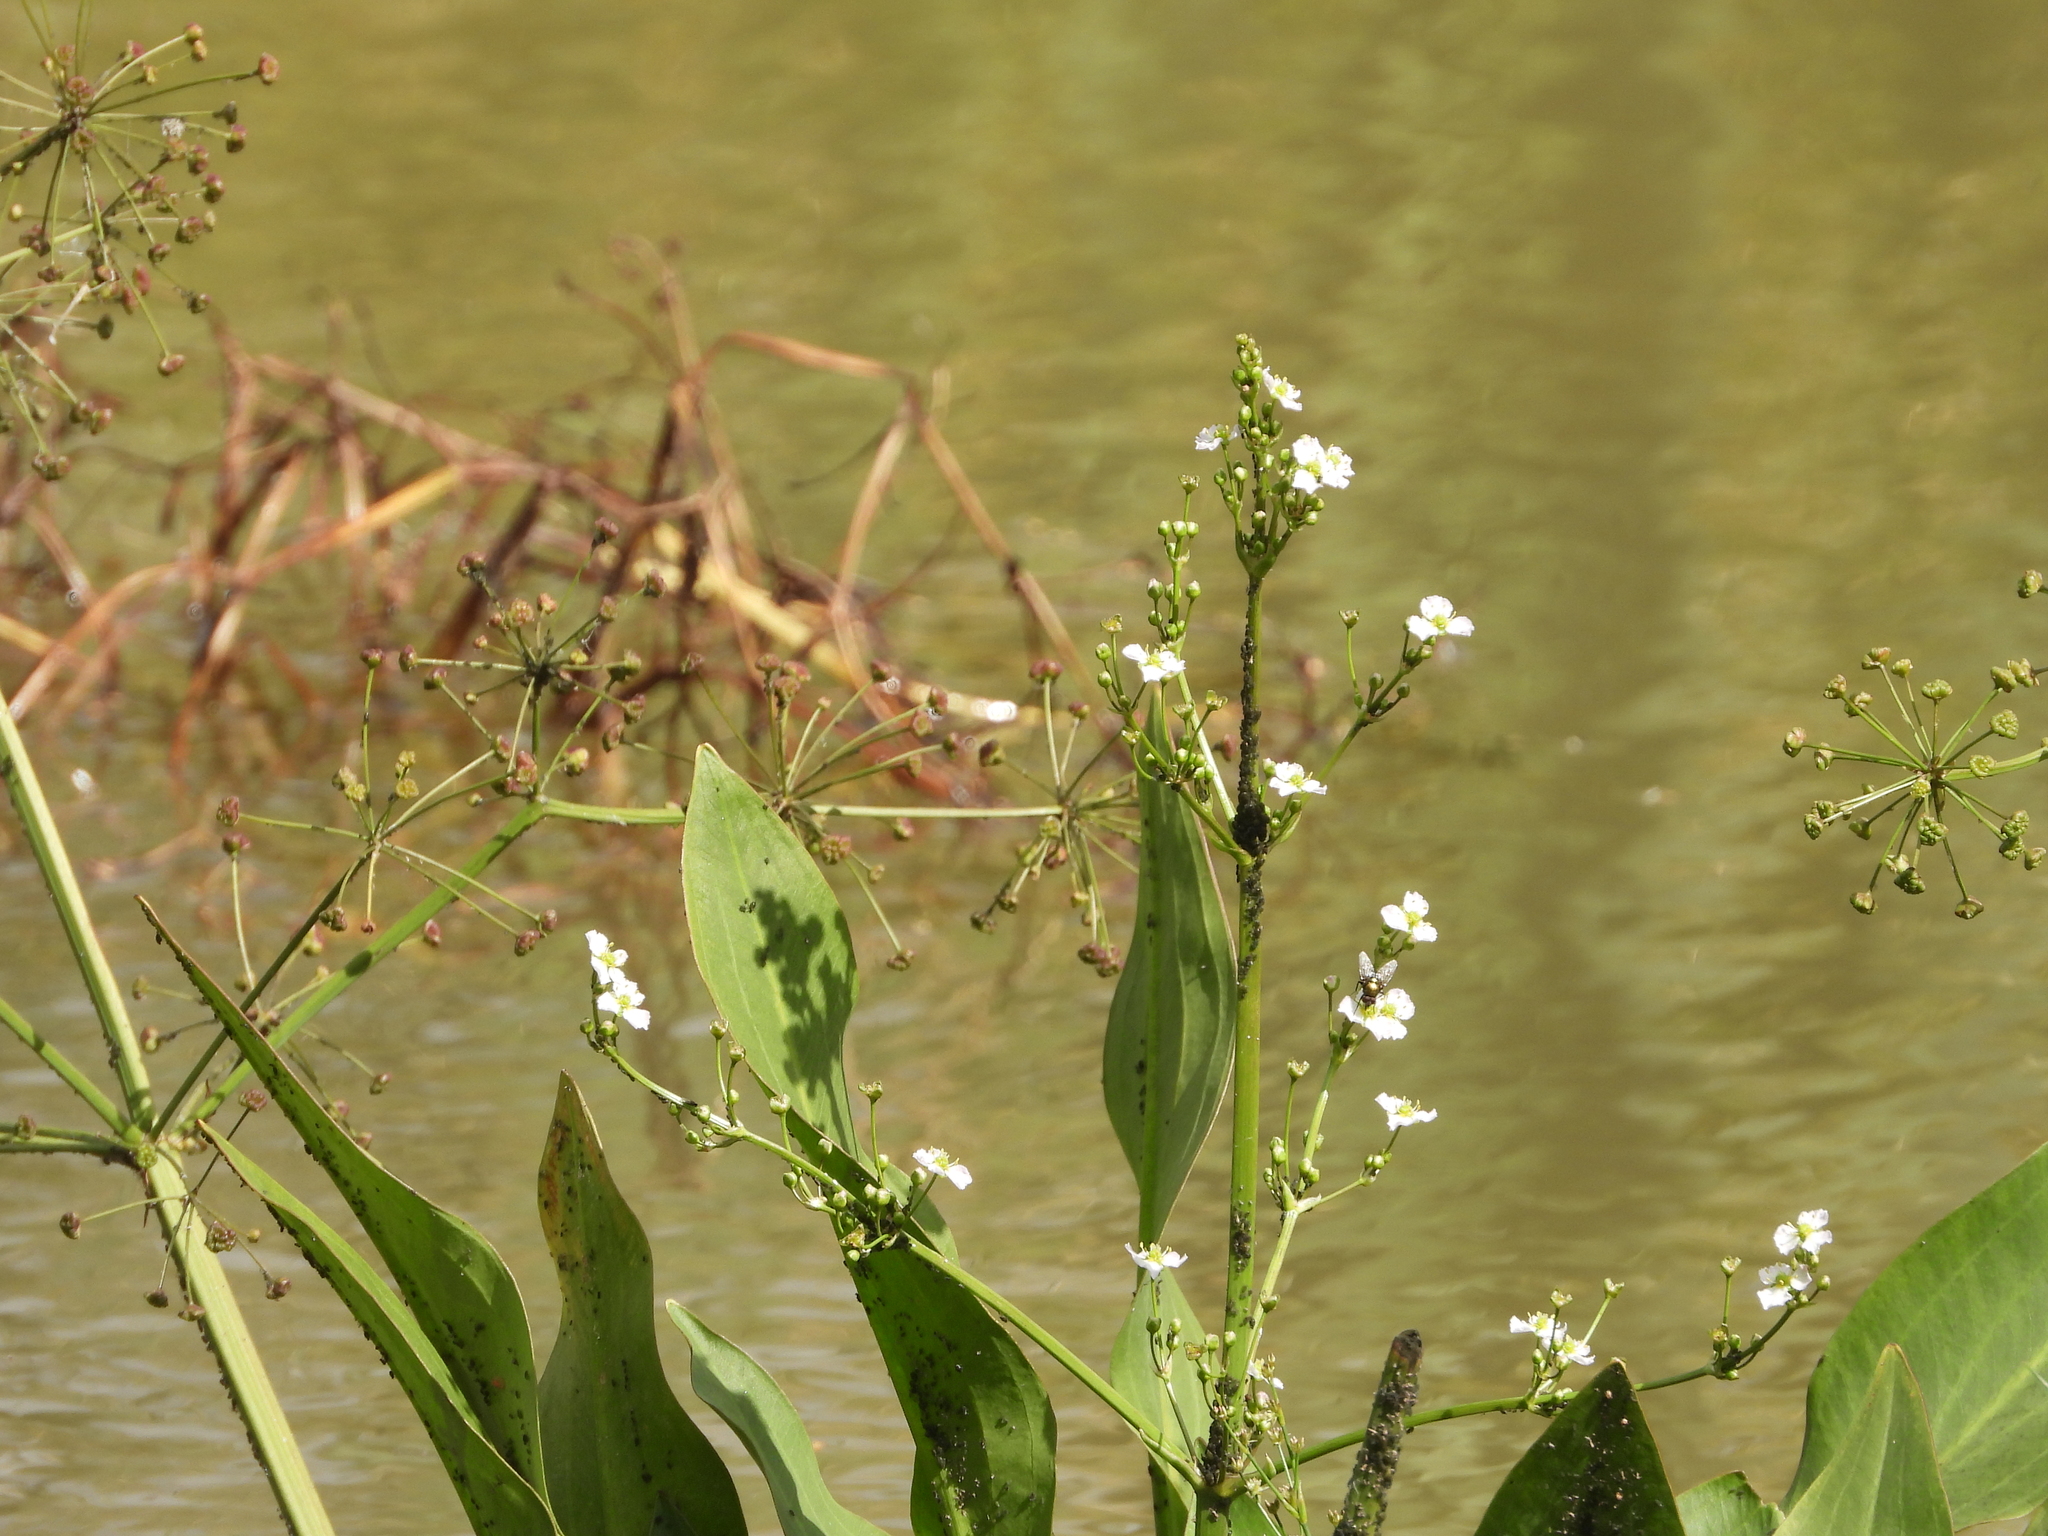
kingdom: Plantae
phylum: Tracheophyta
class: Liliopsida
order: Alismatales
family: Alismataceae
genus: Alisma
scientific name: Alisma plantago-aquatica
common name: Water-plantain
